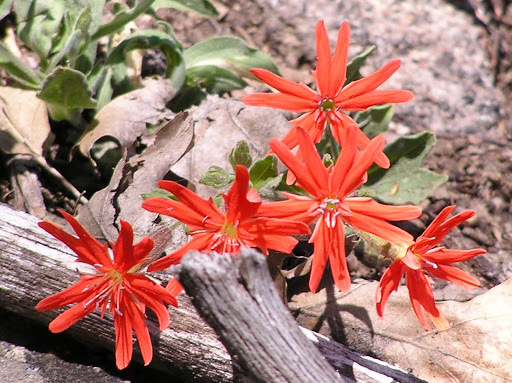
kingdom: Plantae
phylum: Tracheophyta
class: Magnoliopsida
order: Caryophyllales
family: Caryophyllaceae
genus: Silene
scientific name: Silene laciniata
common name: Indian-pink
